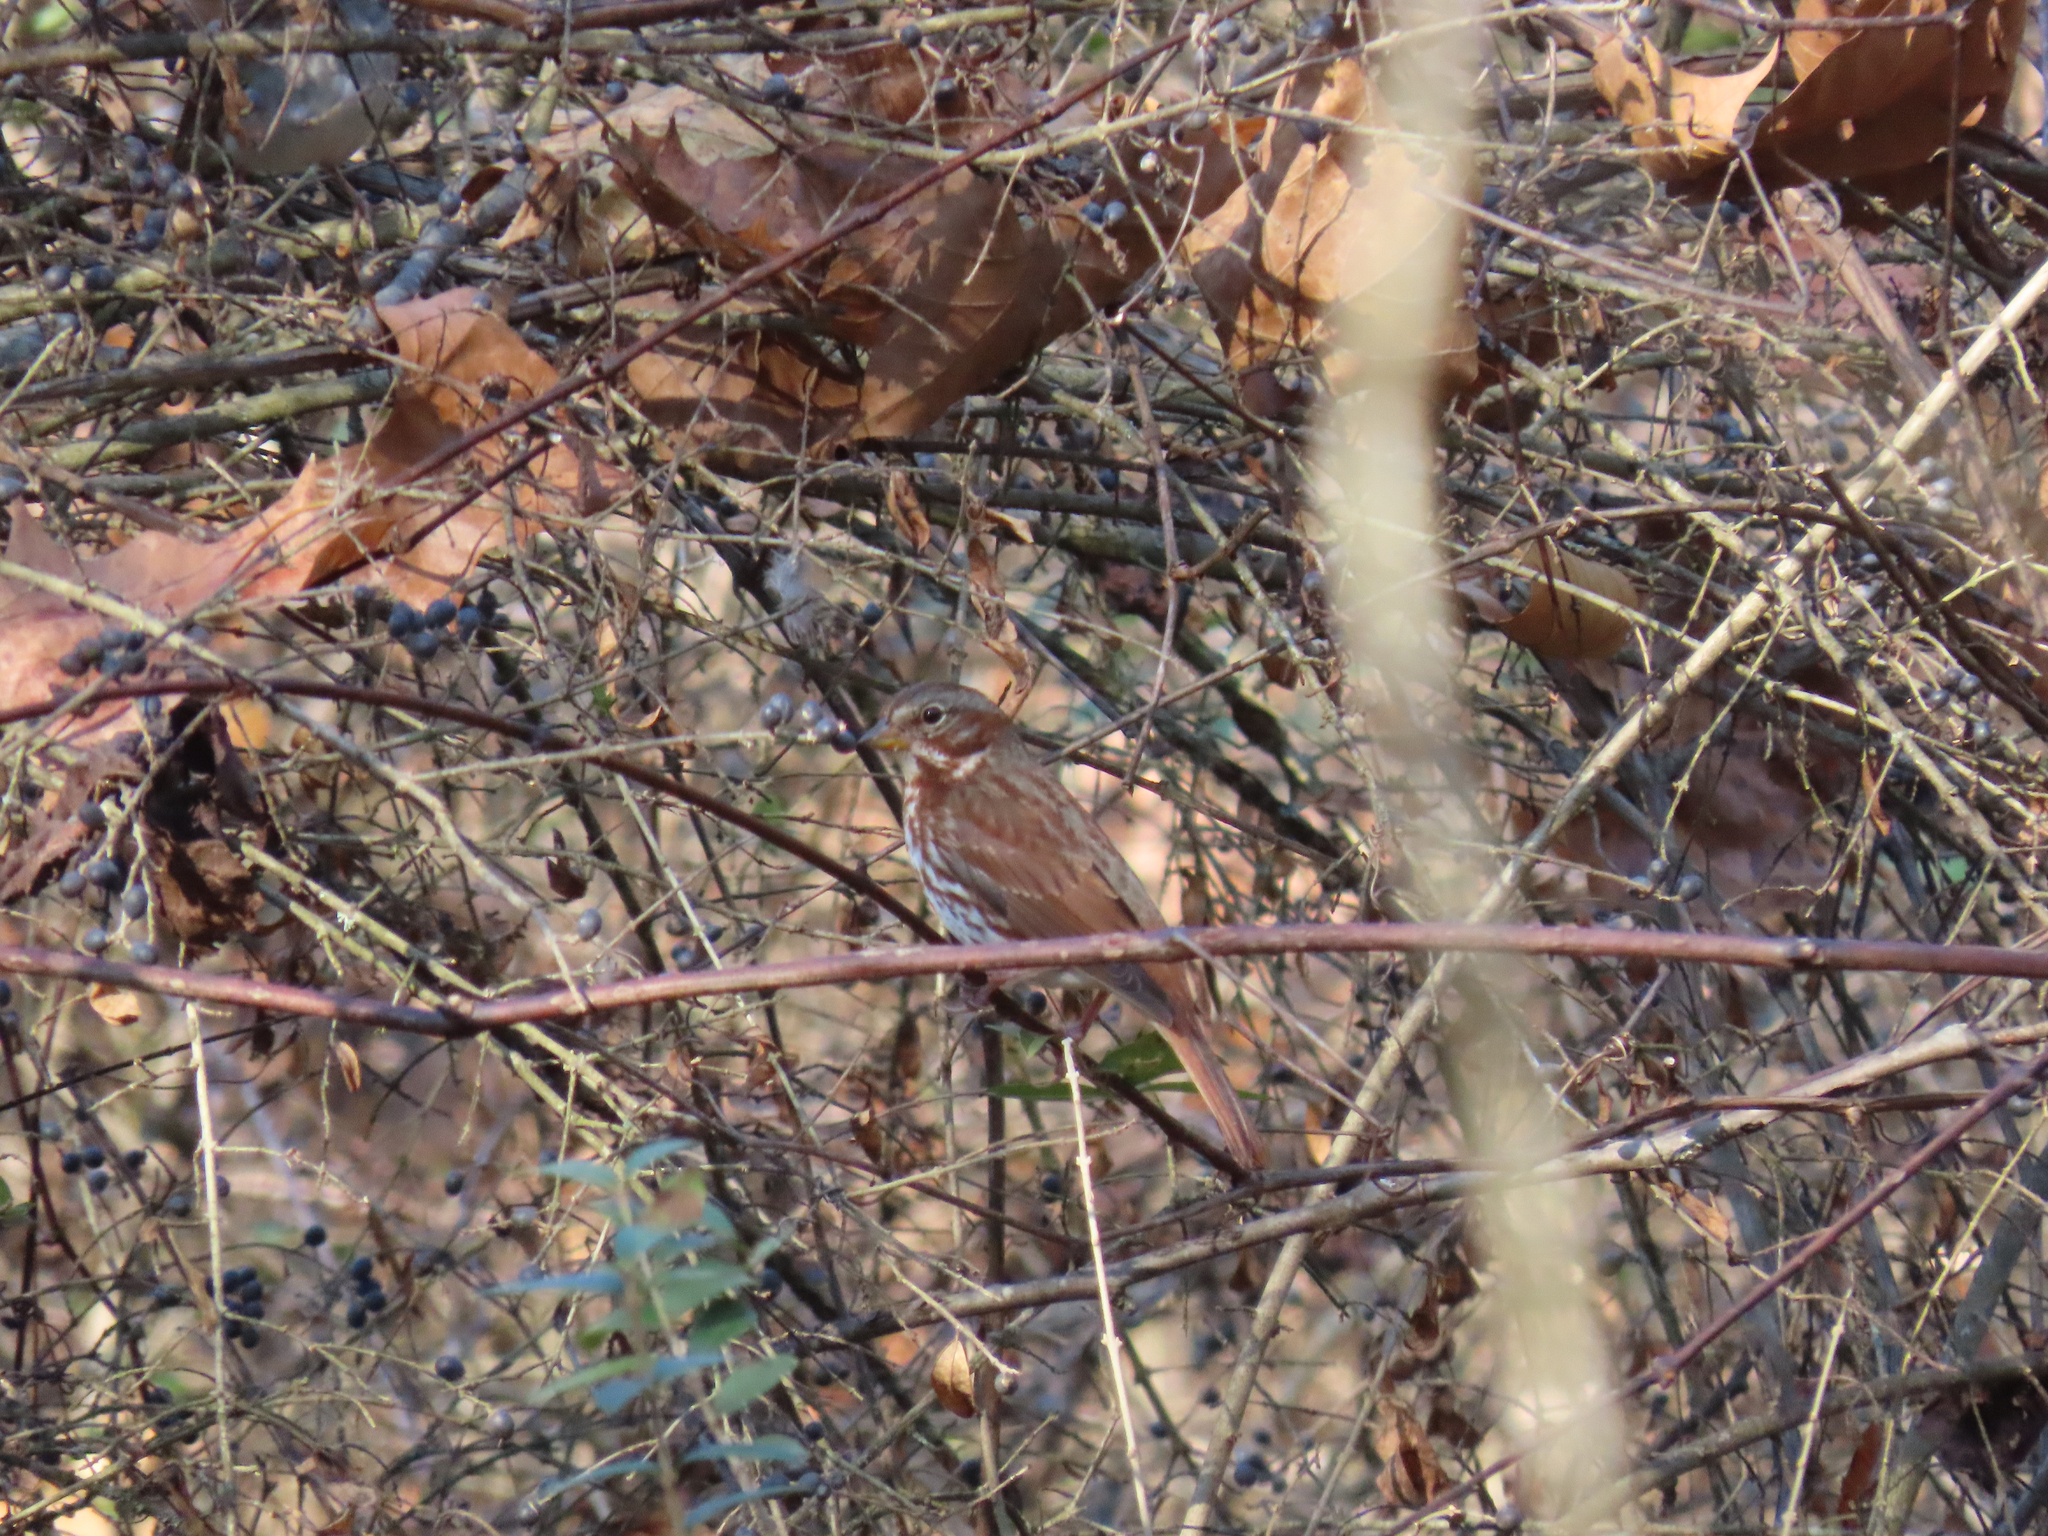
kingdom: Animalia
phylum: Chordata
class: Aves
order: Passeriformes
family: Passerellidae
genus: Passerella
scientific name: Passerella iliaca
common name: Fox sparrow
